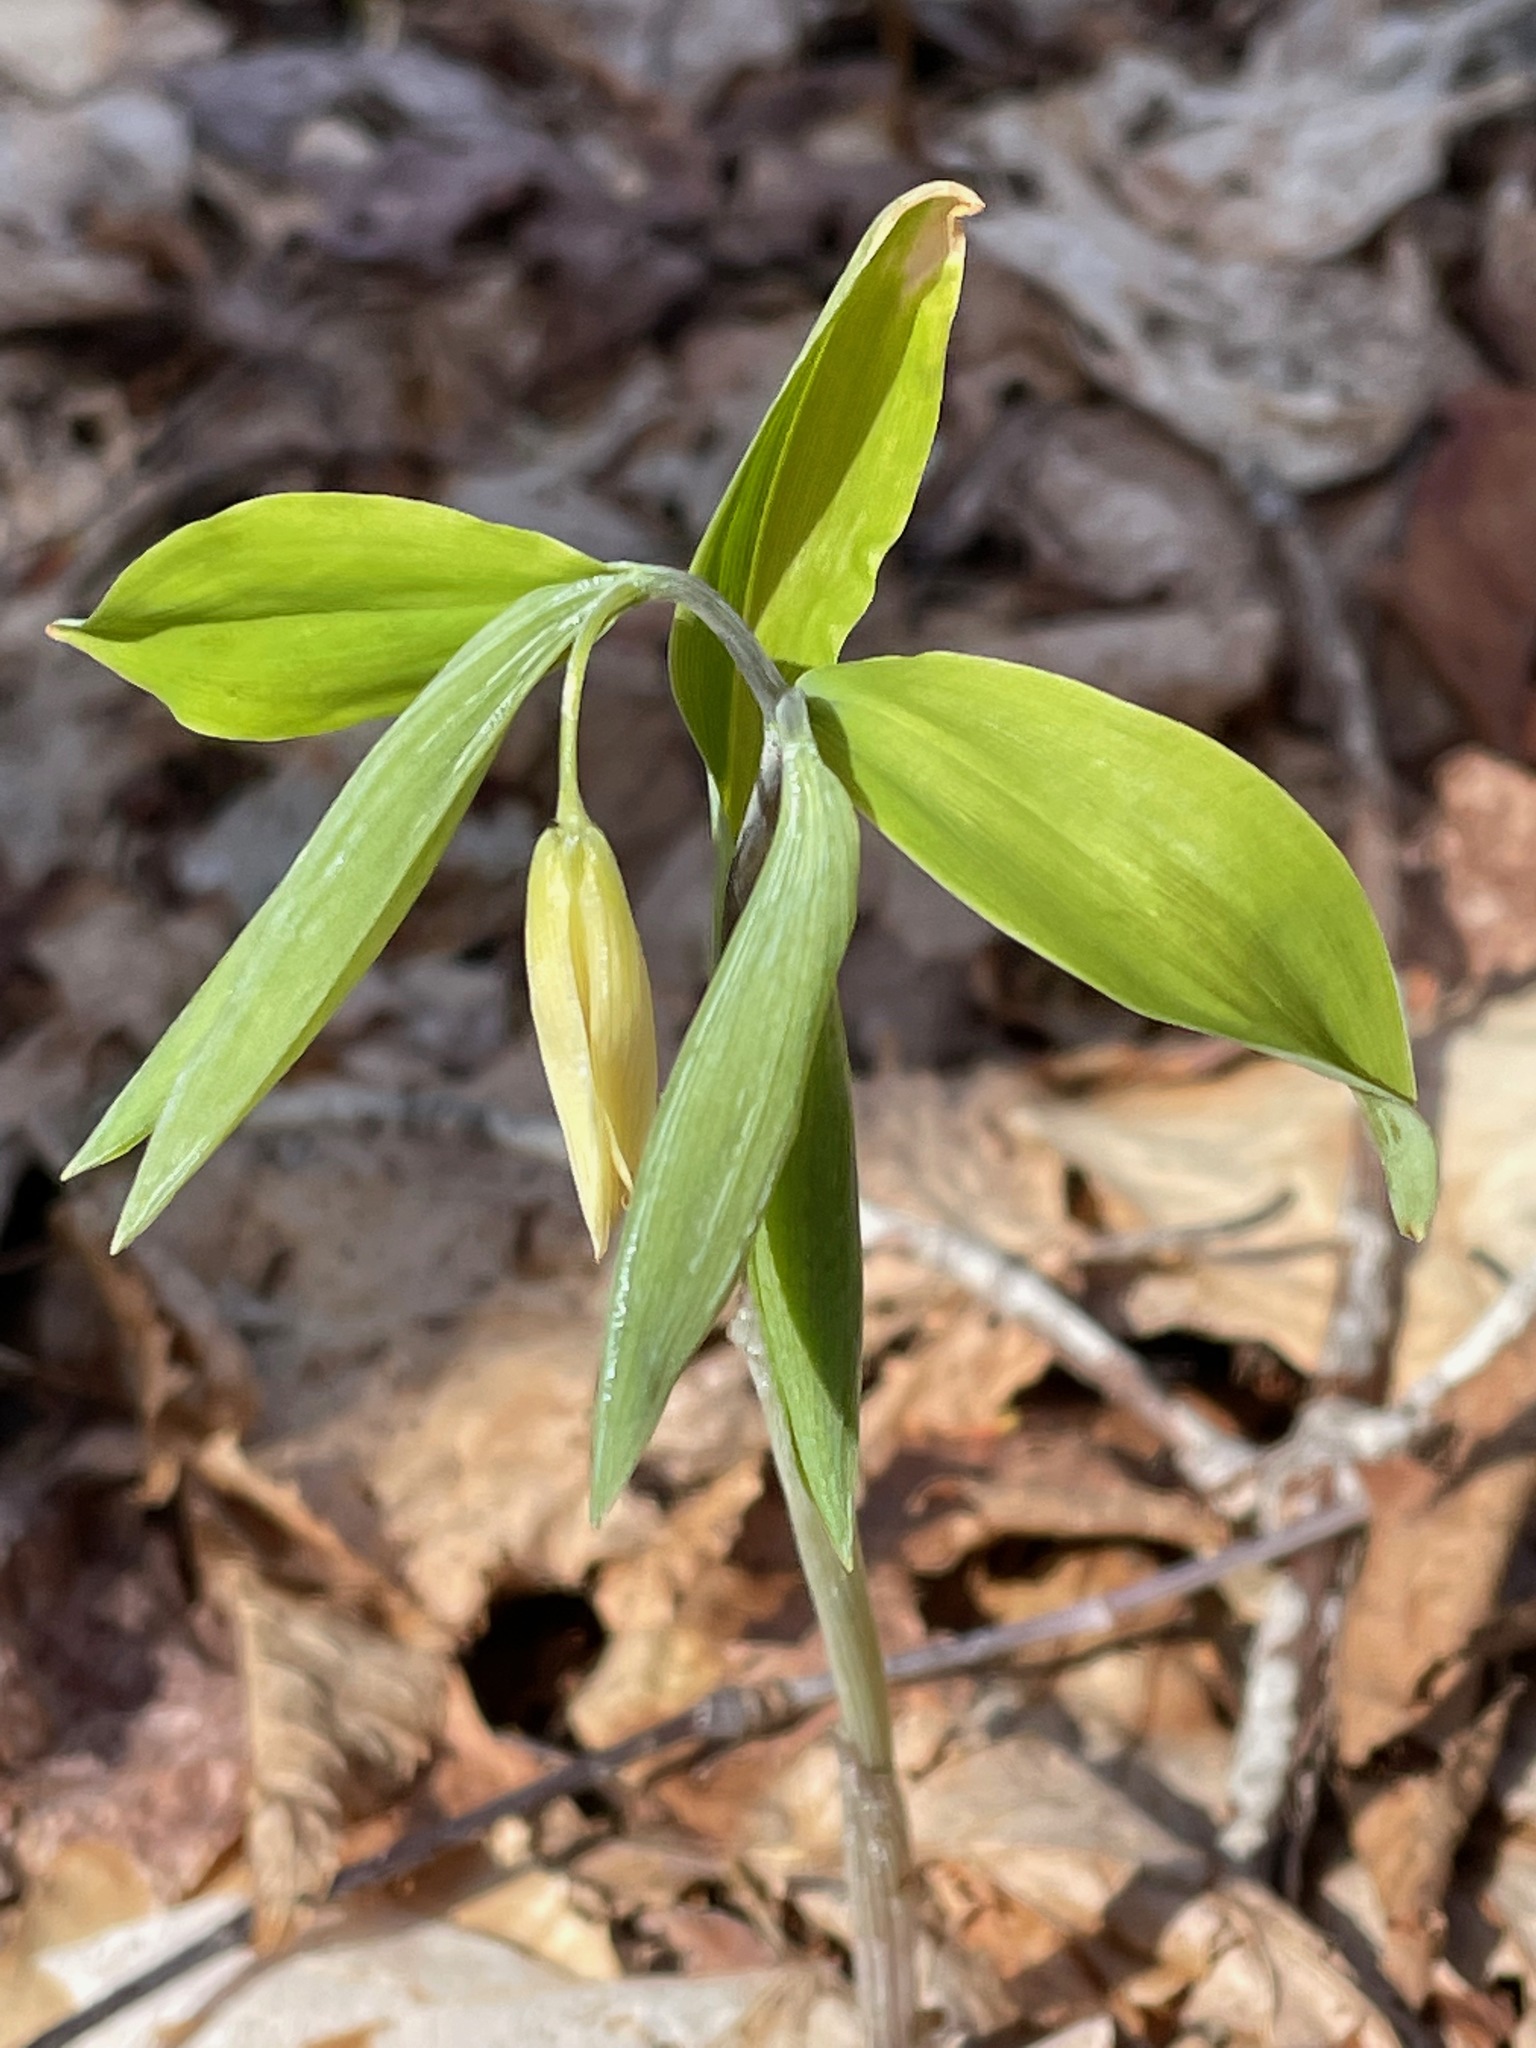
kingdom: Plantae
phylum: Tracheophyta
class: Liliopsida
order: Liliales
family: Colchicaceae
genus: Uvularia
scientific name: Uvularia sessilifolia
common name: Straw-lily
